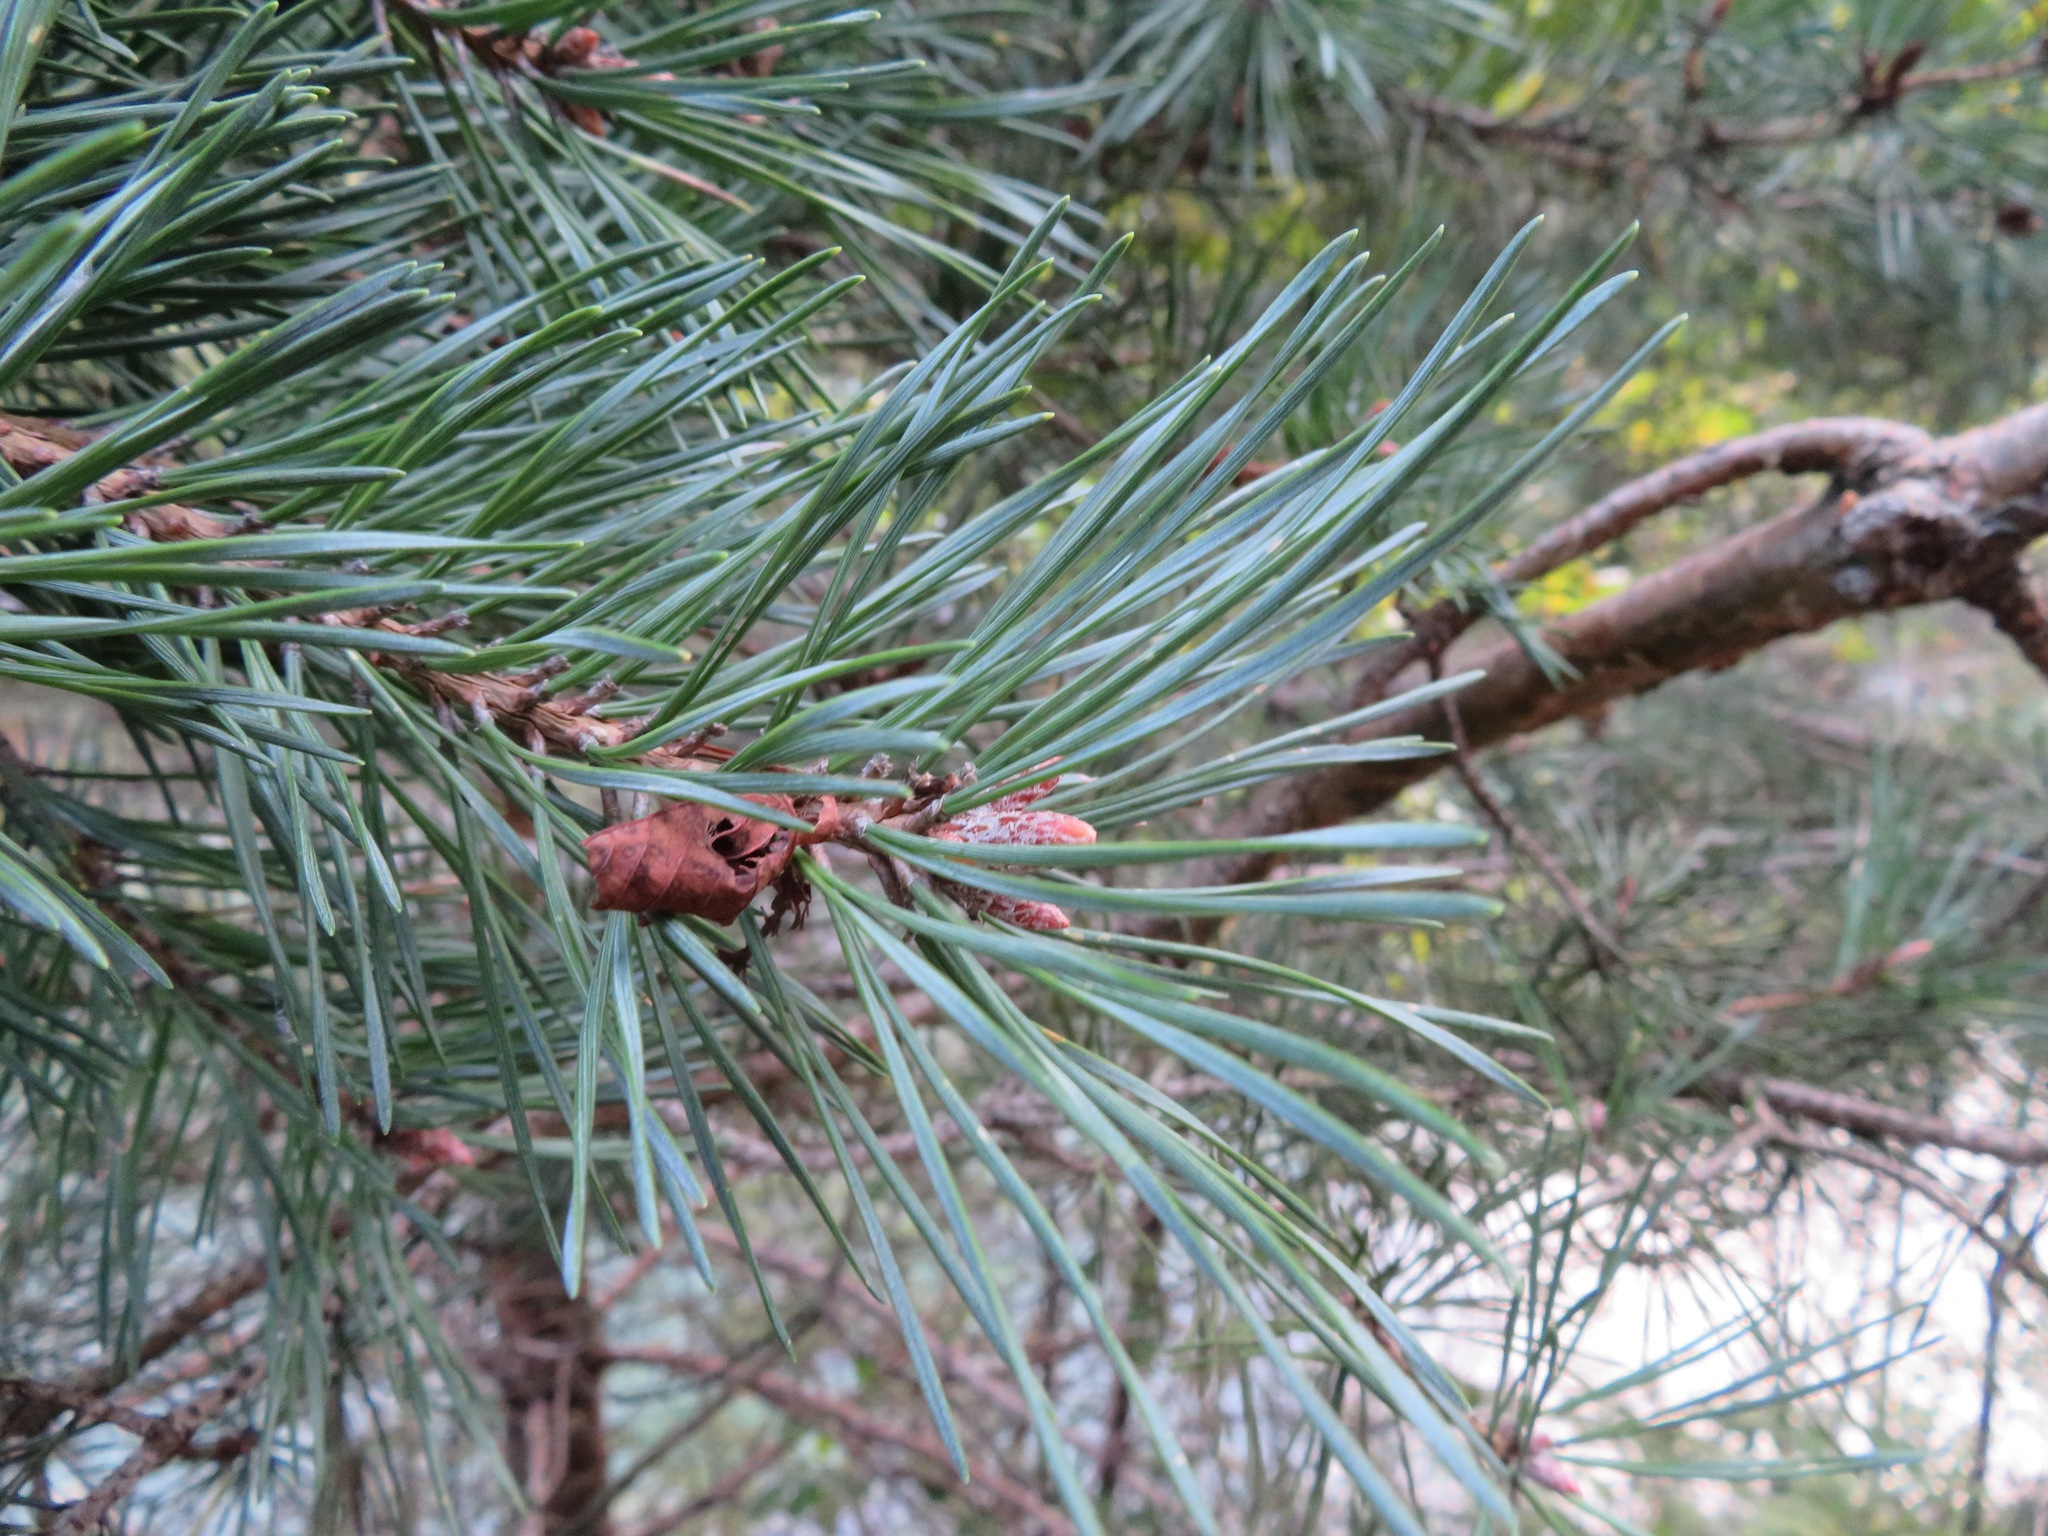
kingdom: Plantae
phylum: Tracheophyta
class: Pinopsida
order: Pinales
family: Pinaceae
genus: Pinus
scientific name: Pinus sylvestris
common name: Scots pine
